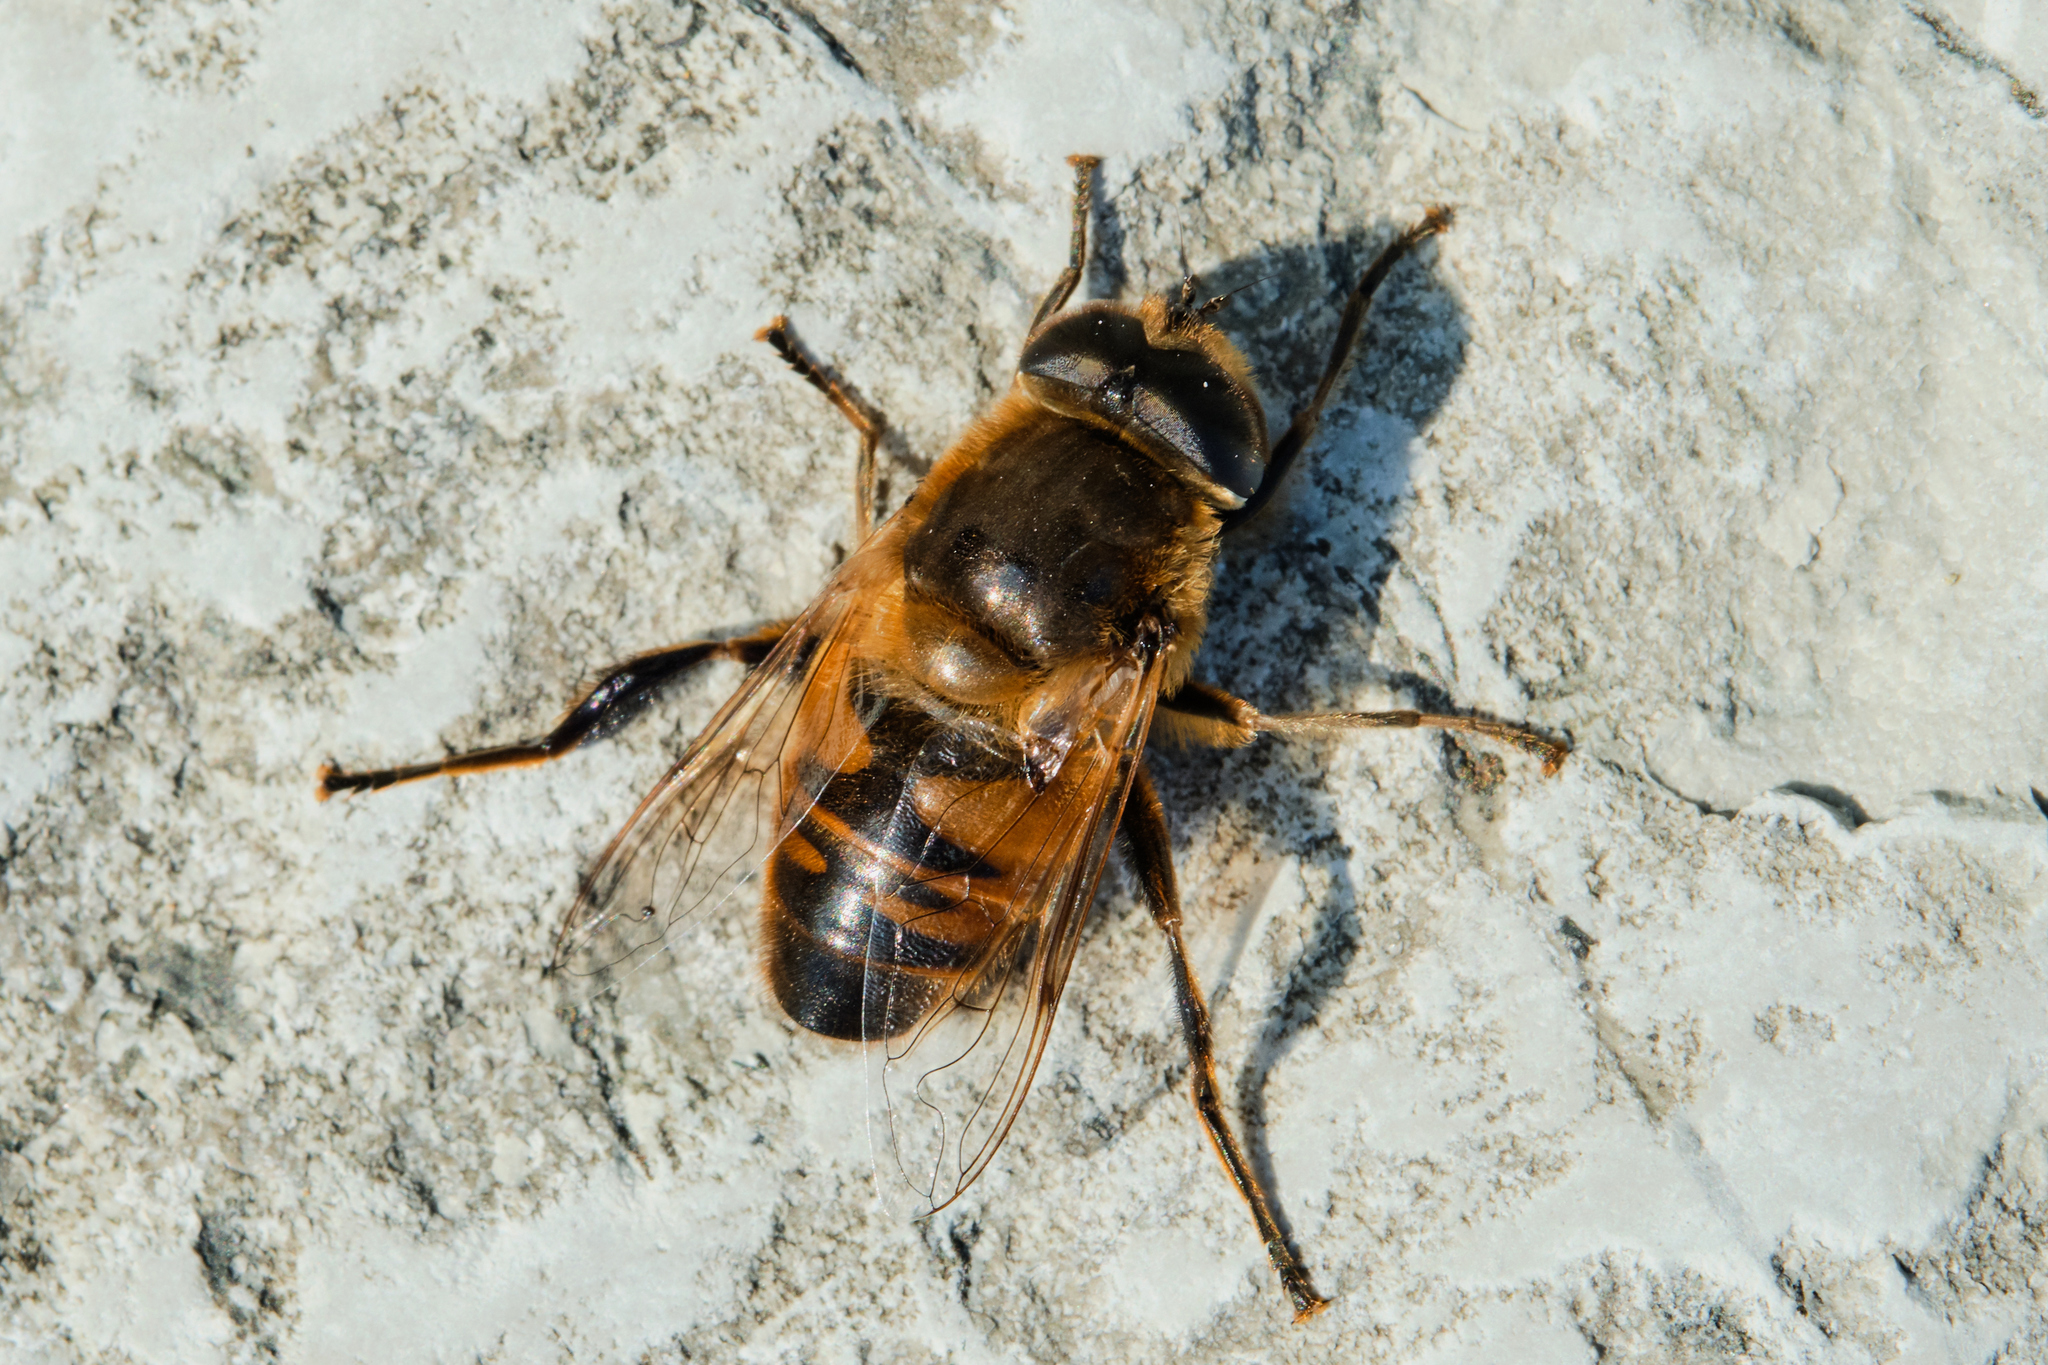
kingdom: Animalia
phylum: Arthropoda
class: Insecta
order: Diptera
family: Syrphidae
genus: Eristalis
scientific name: Eristalis tenax
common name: Drone fly
